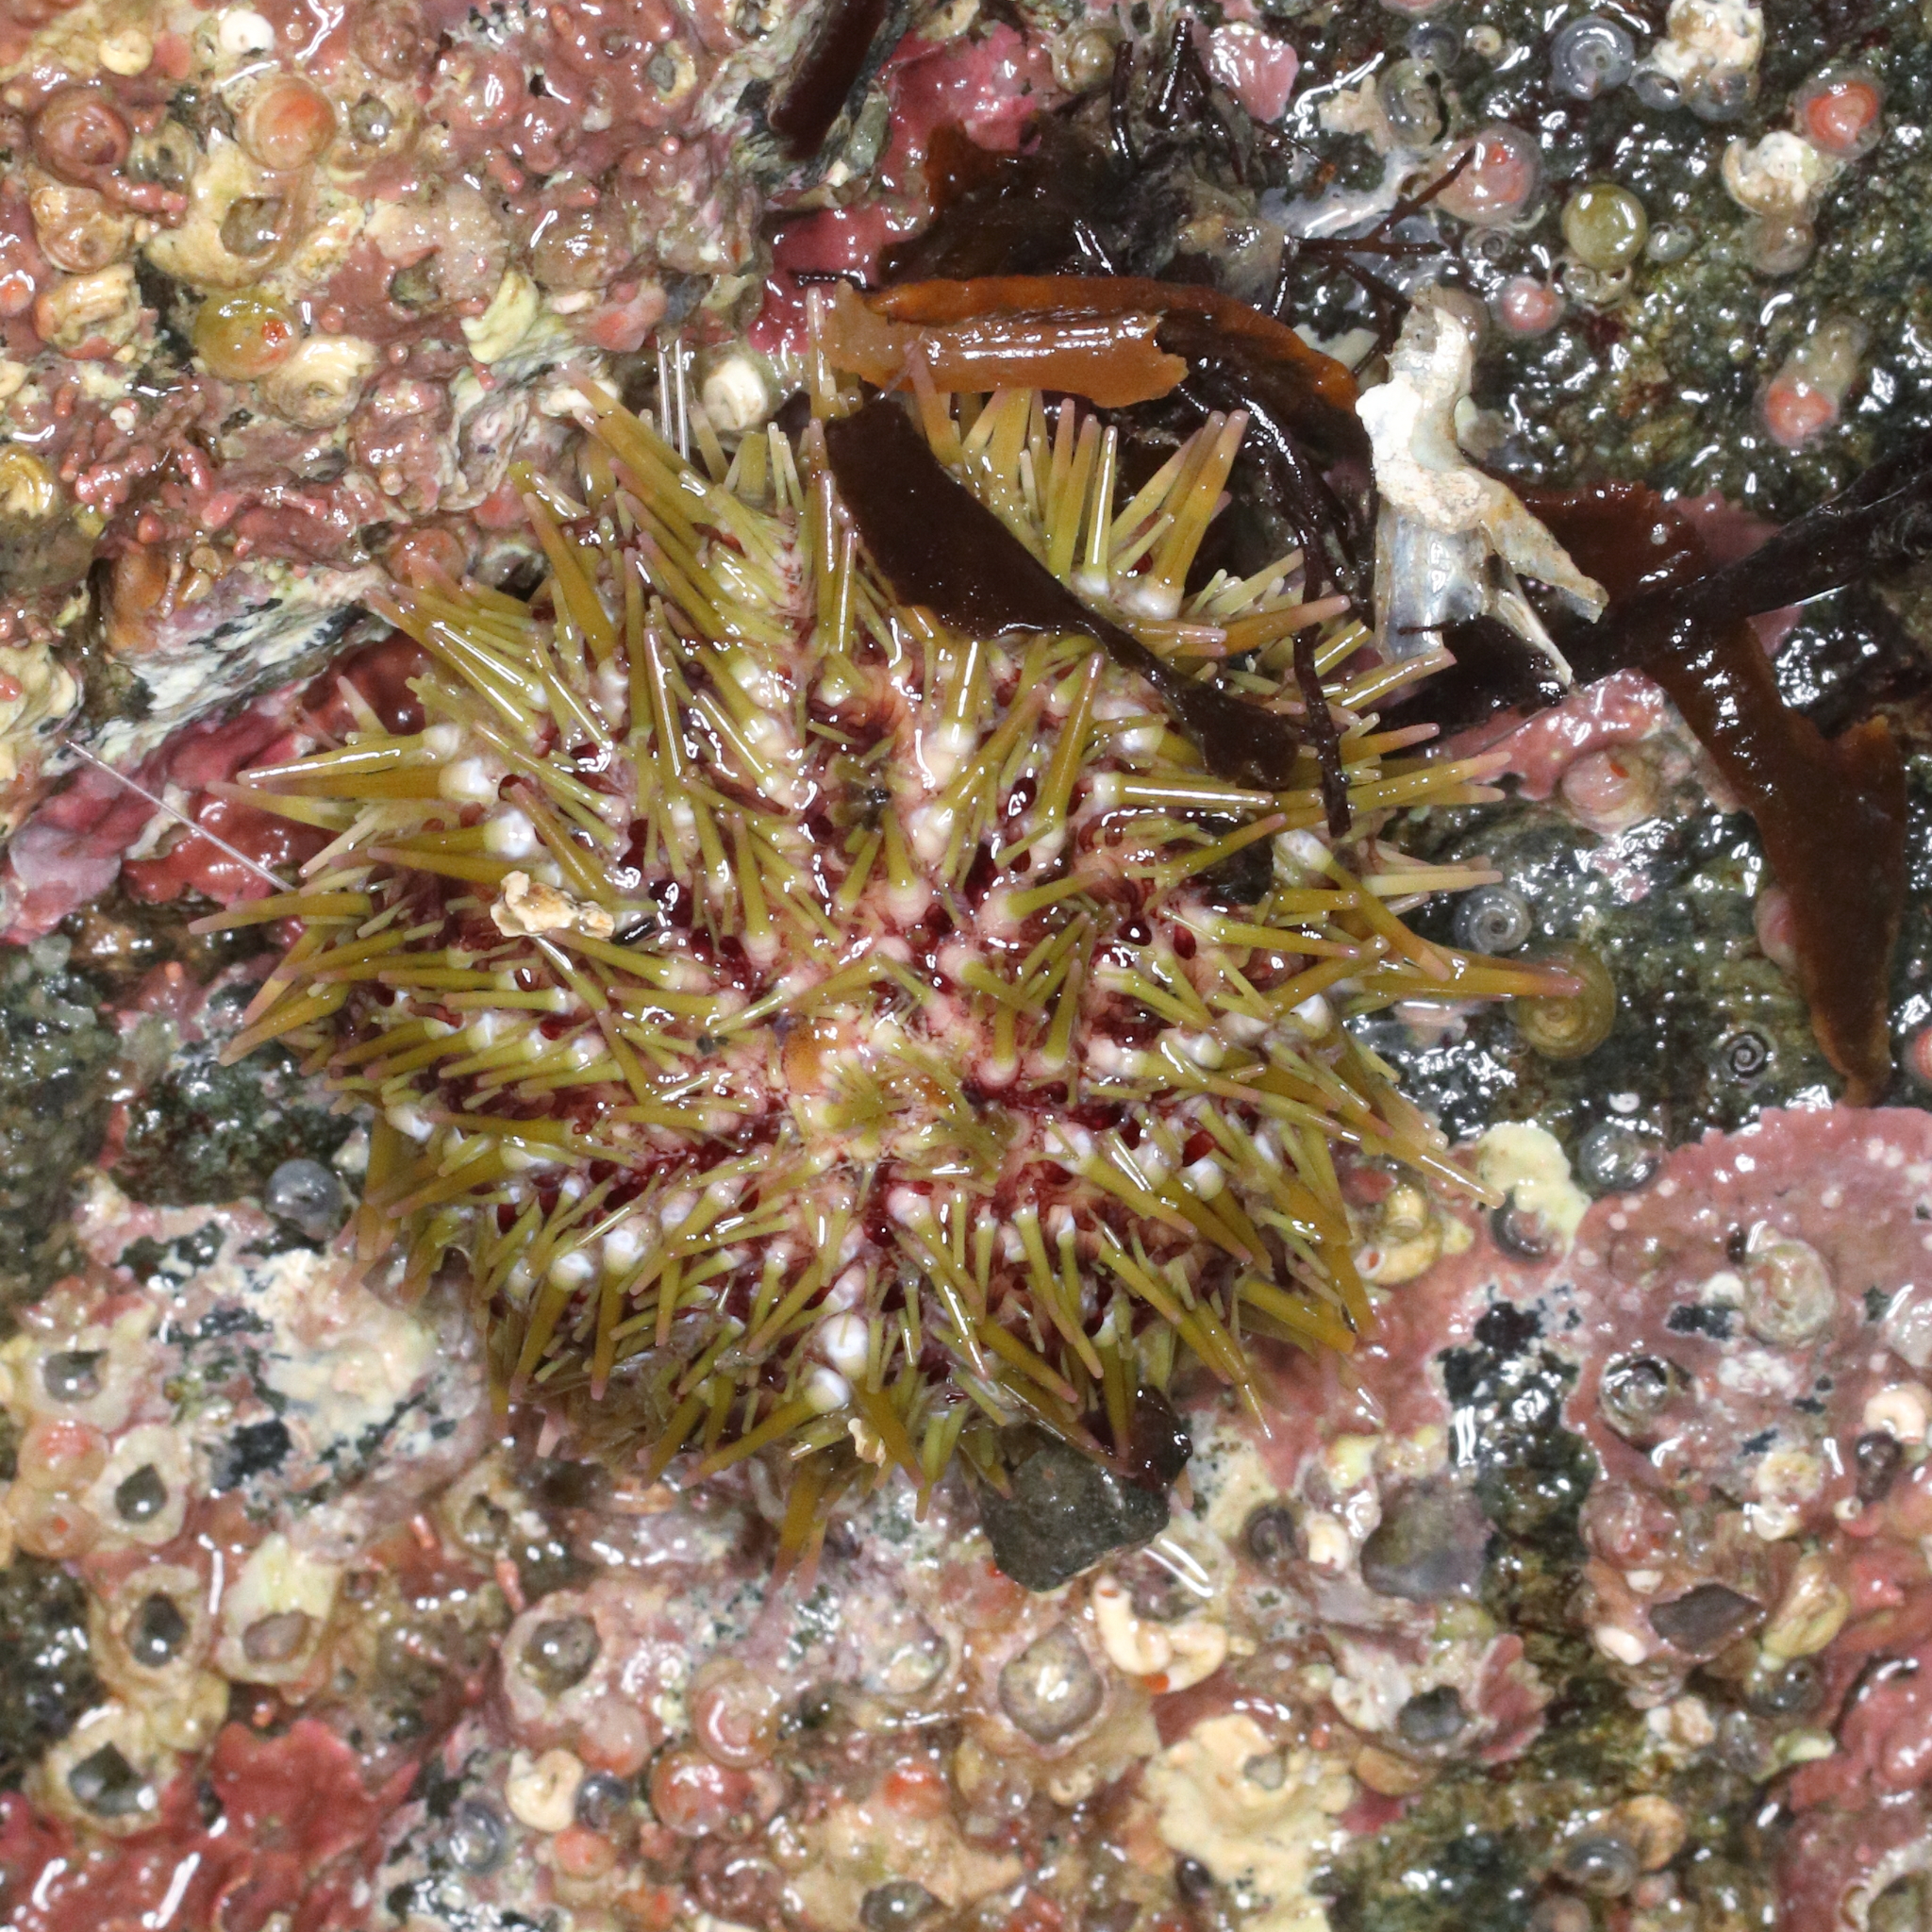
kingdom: Animalia
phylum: Echinodermata
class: Echinoidea
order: Camarodonta
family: Strongylocentrotidae
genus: Strongylocentrotus
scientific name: Strongylocentrotus droebachiensis
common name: Northern sea urchin
